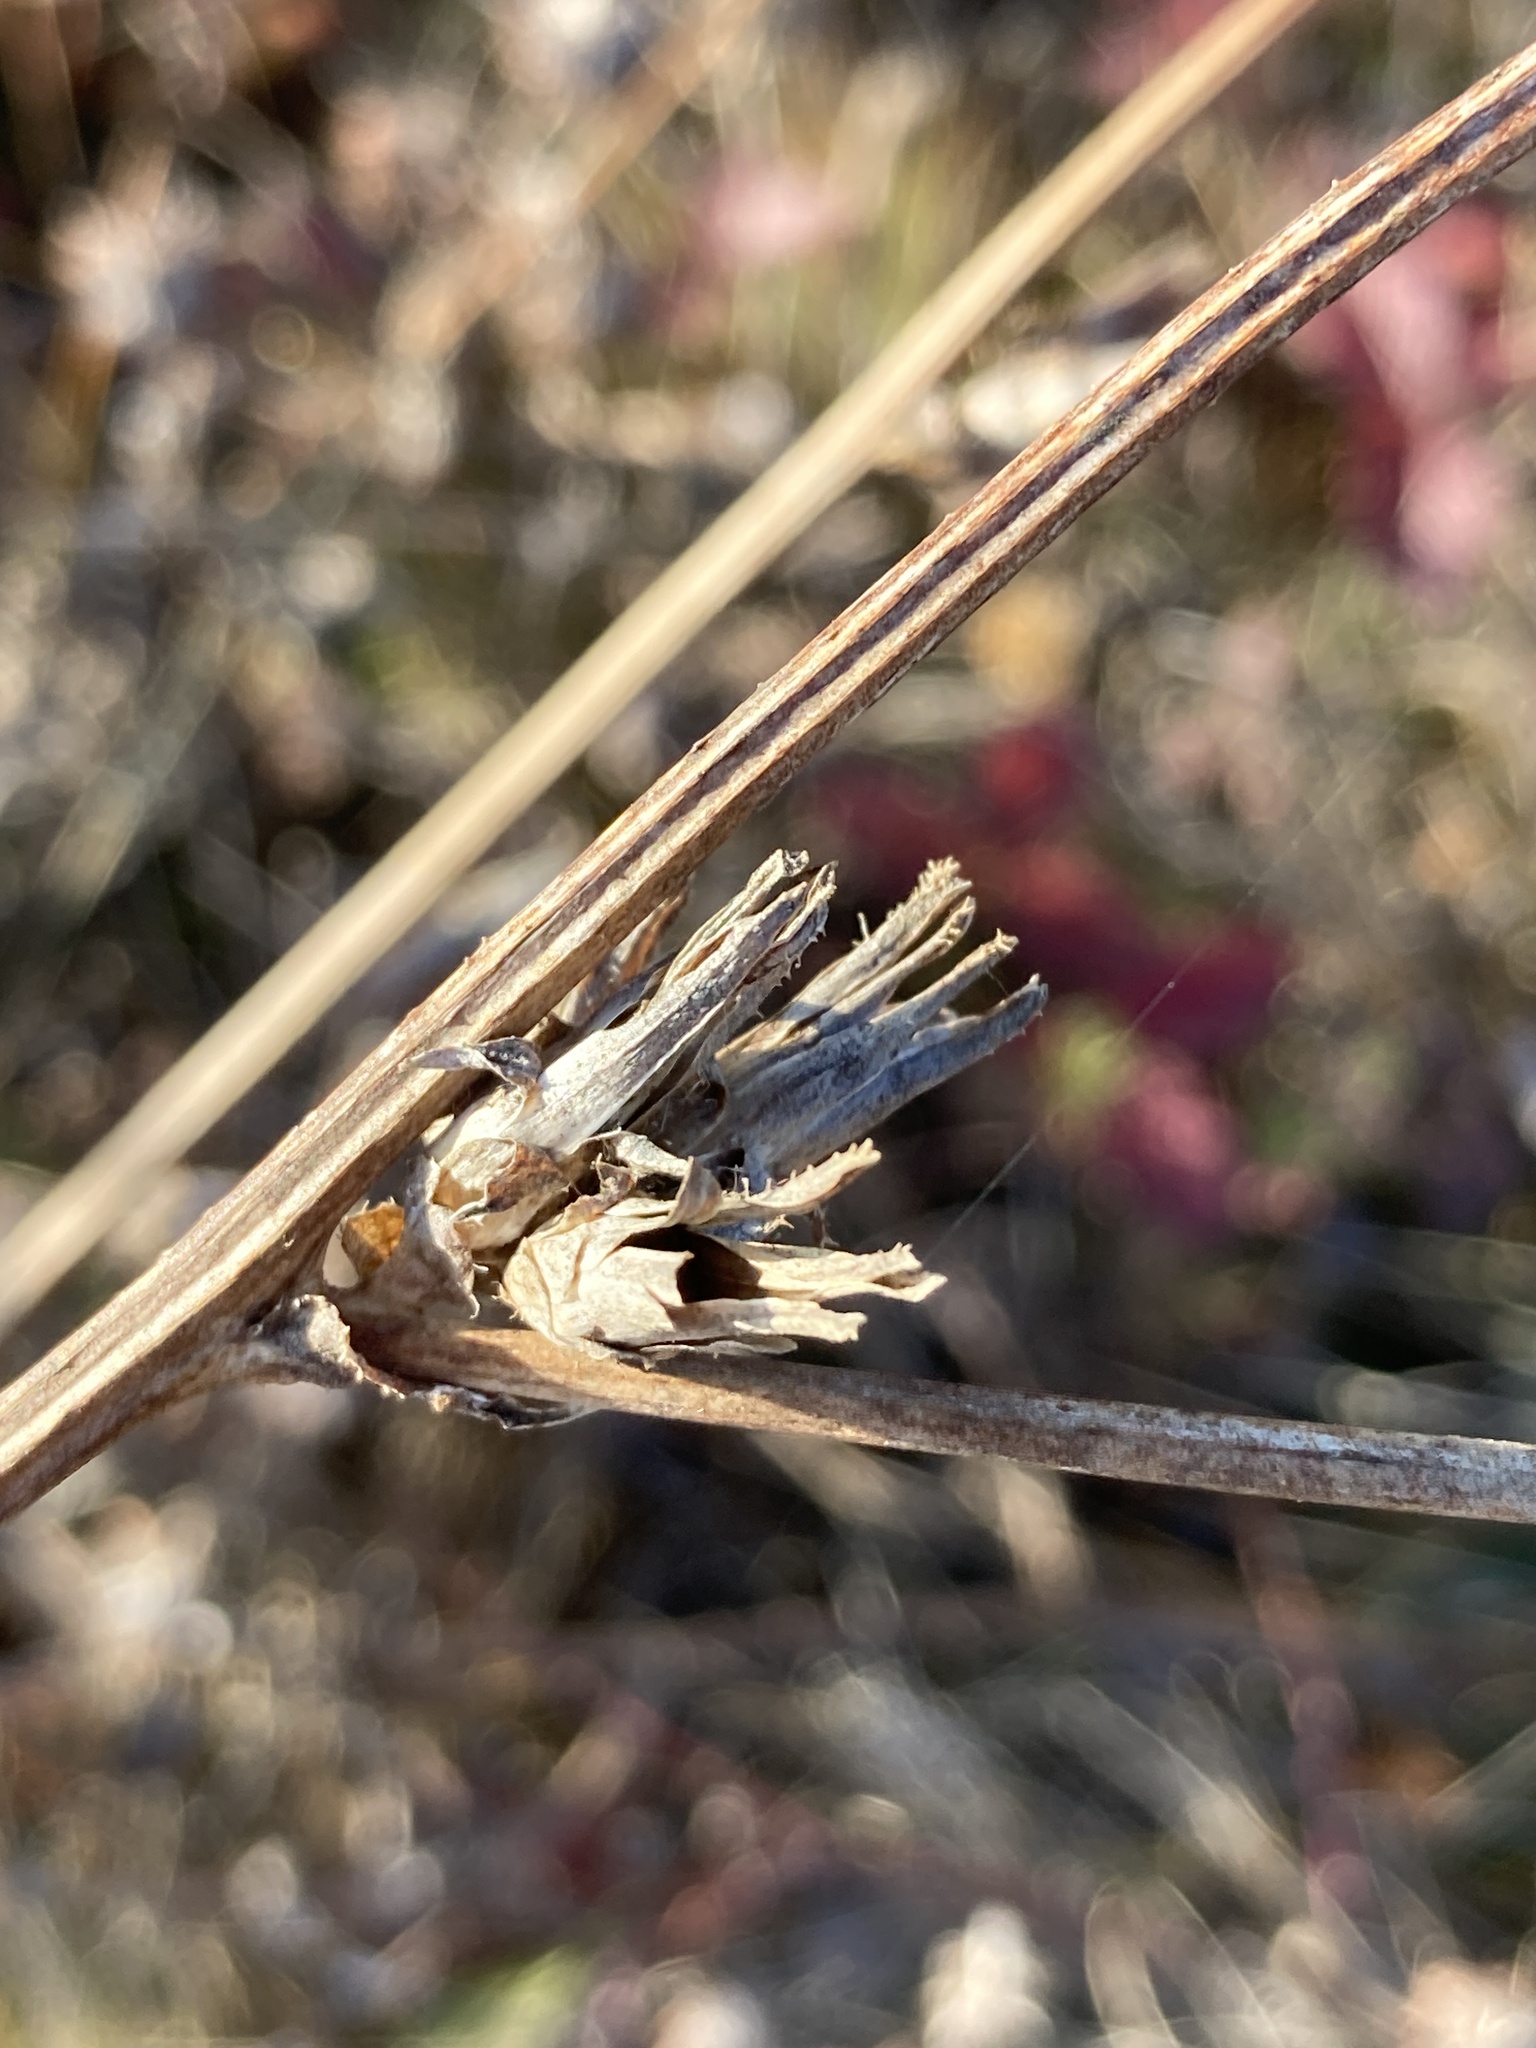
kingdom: Plantae
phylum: Tracheophyta
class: Magnoliopsida
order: Asterales
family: Asteraceae
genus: Cichorium
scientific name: Cichorium intybus
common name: Chicory
